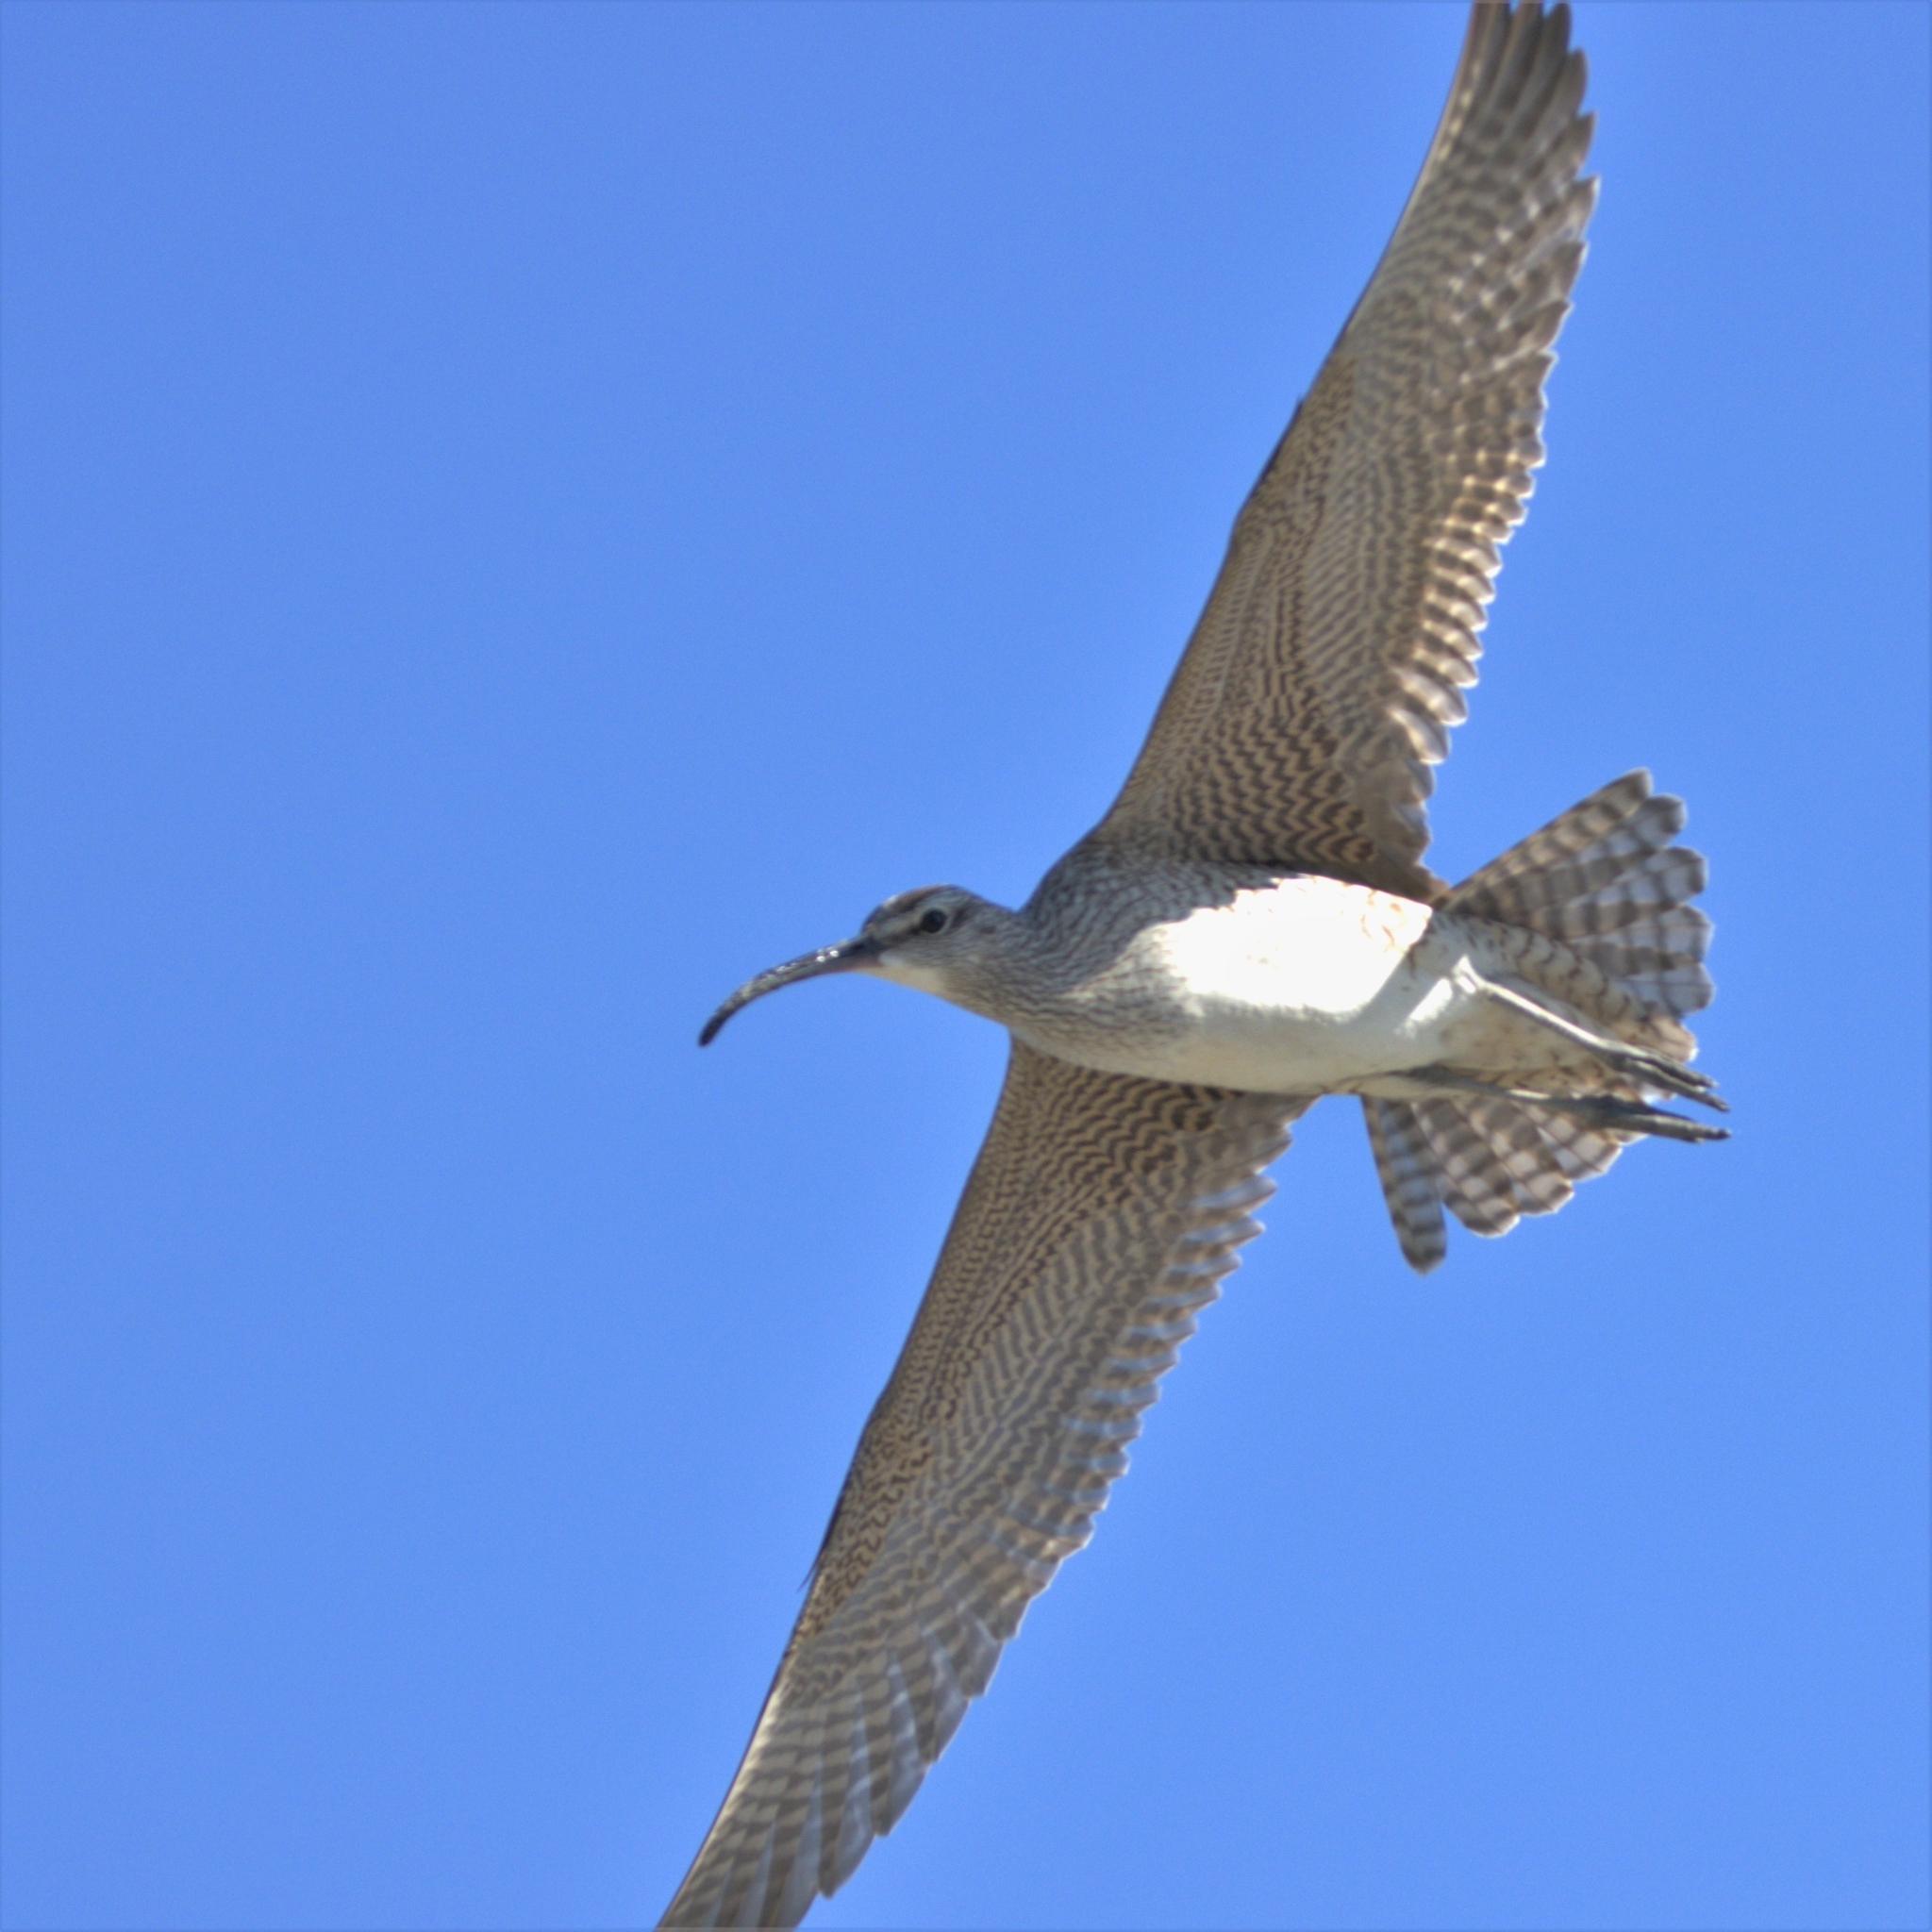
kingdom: Animalia
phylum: Chordata
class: Aves
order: Charadriiformes
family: Scolopacidae
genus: Numenius
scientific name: Numenius phaeopus
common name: Whimbrel
